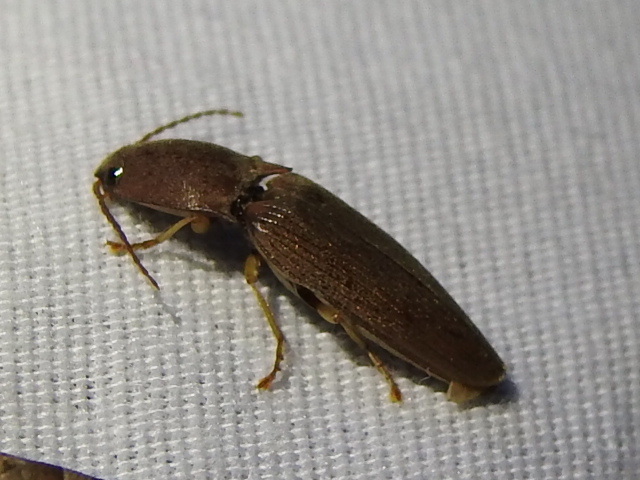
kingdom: Animalia
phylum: Arthropoda
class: Insecta
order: Coleoptera
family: Elateridae
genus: Monocrepidius
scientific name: Monocrepidius lividus
